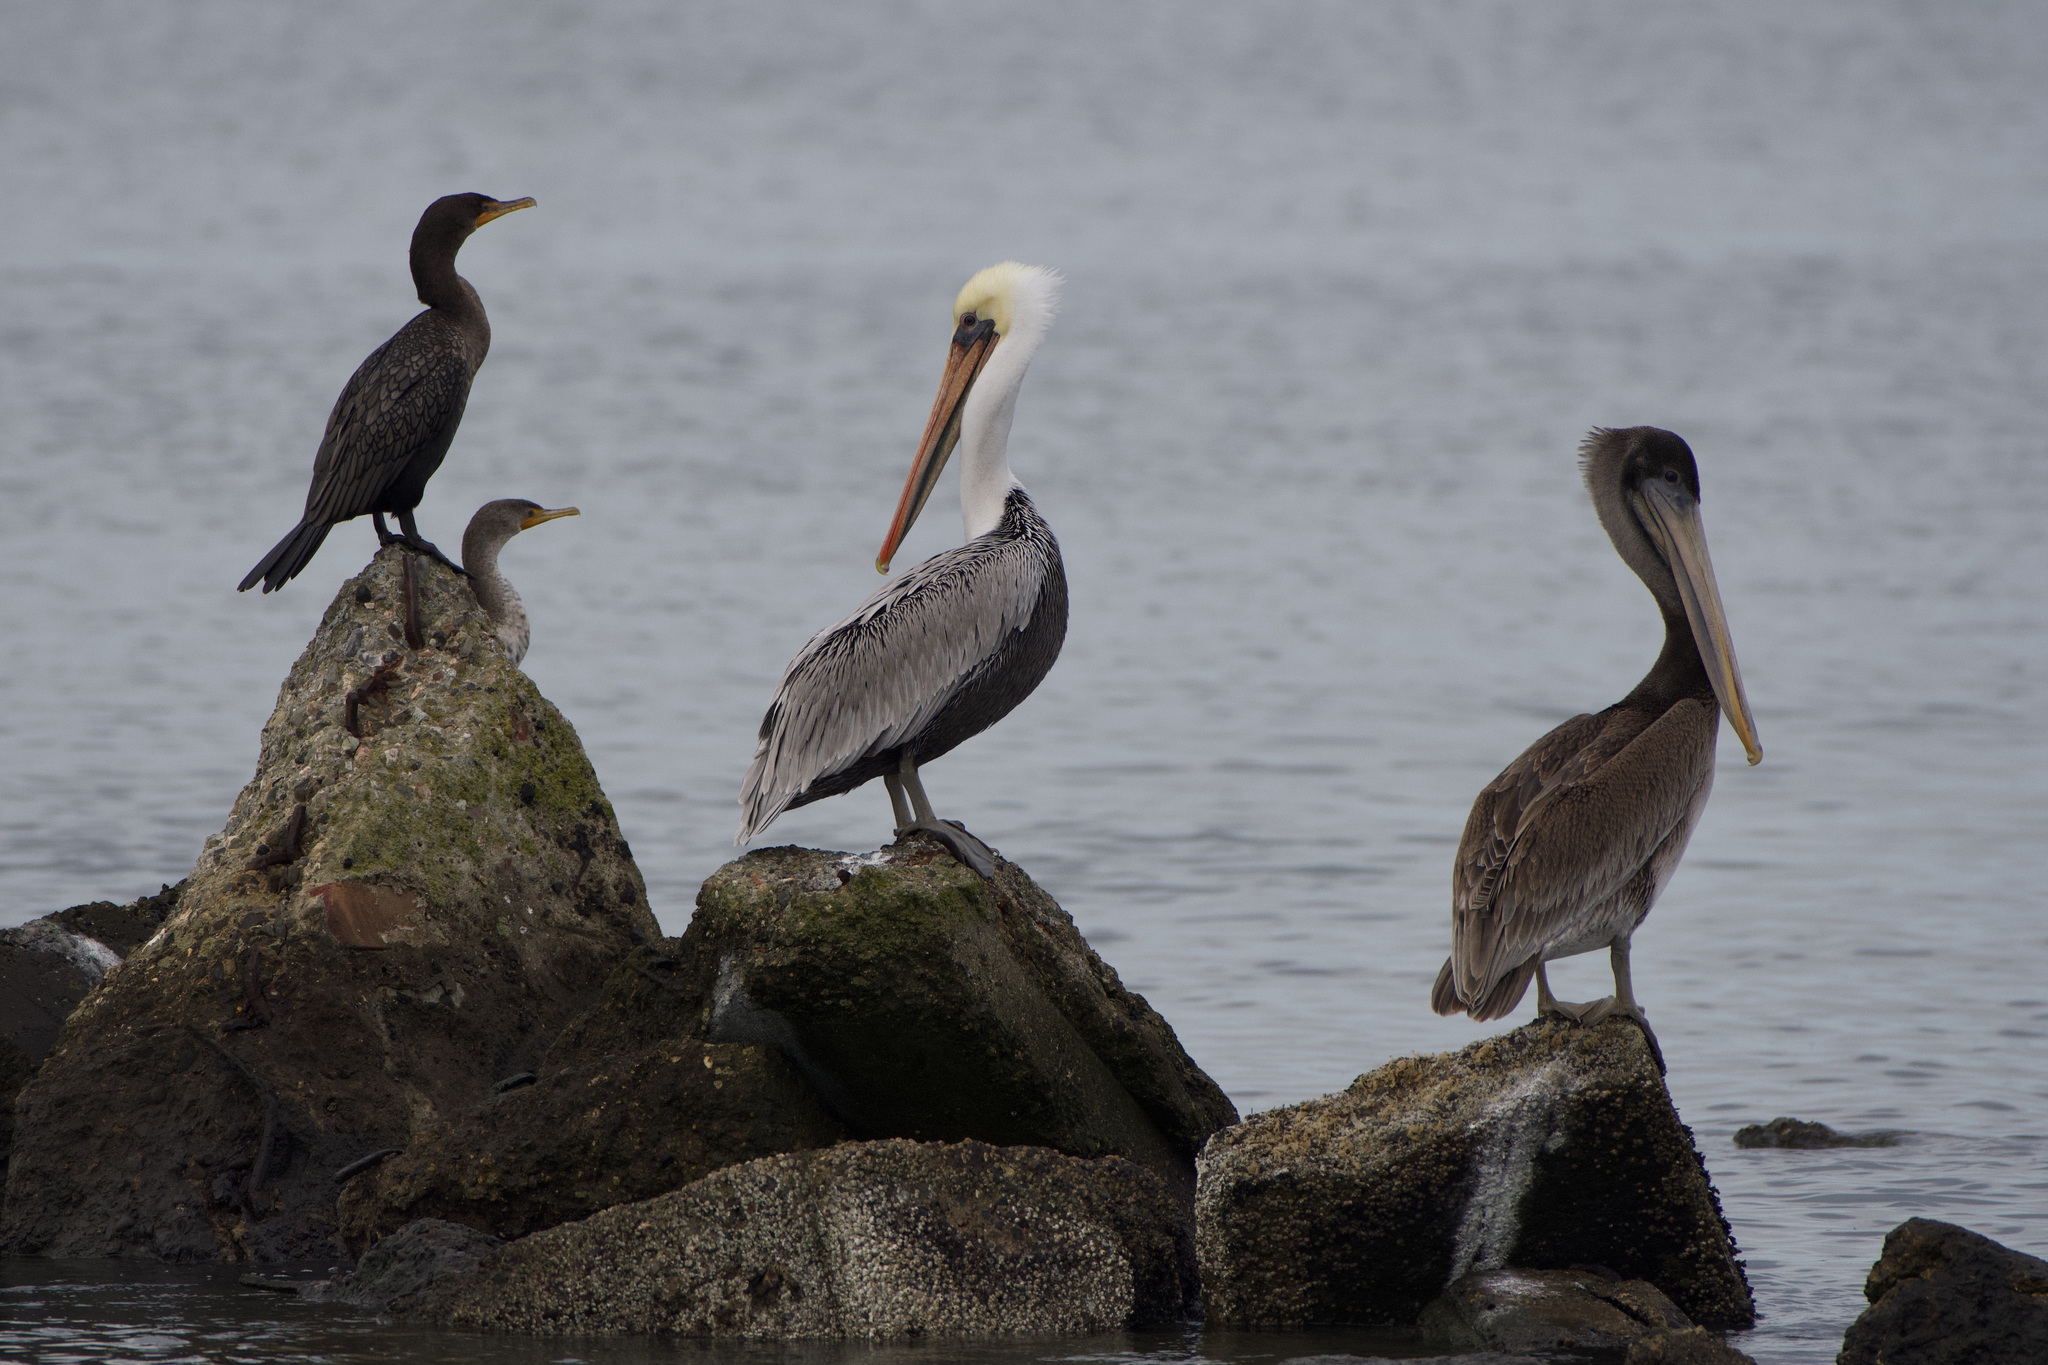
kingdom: Animalia
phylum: Chordata
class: Aves
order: Pelecaniformes
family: Pelecanidae
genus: Pelecanus
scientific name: Pelecanus occidentalis
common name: Brown pelican
